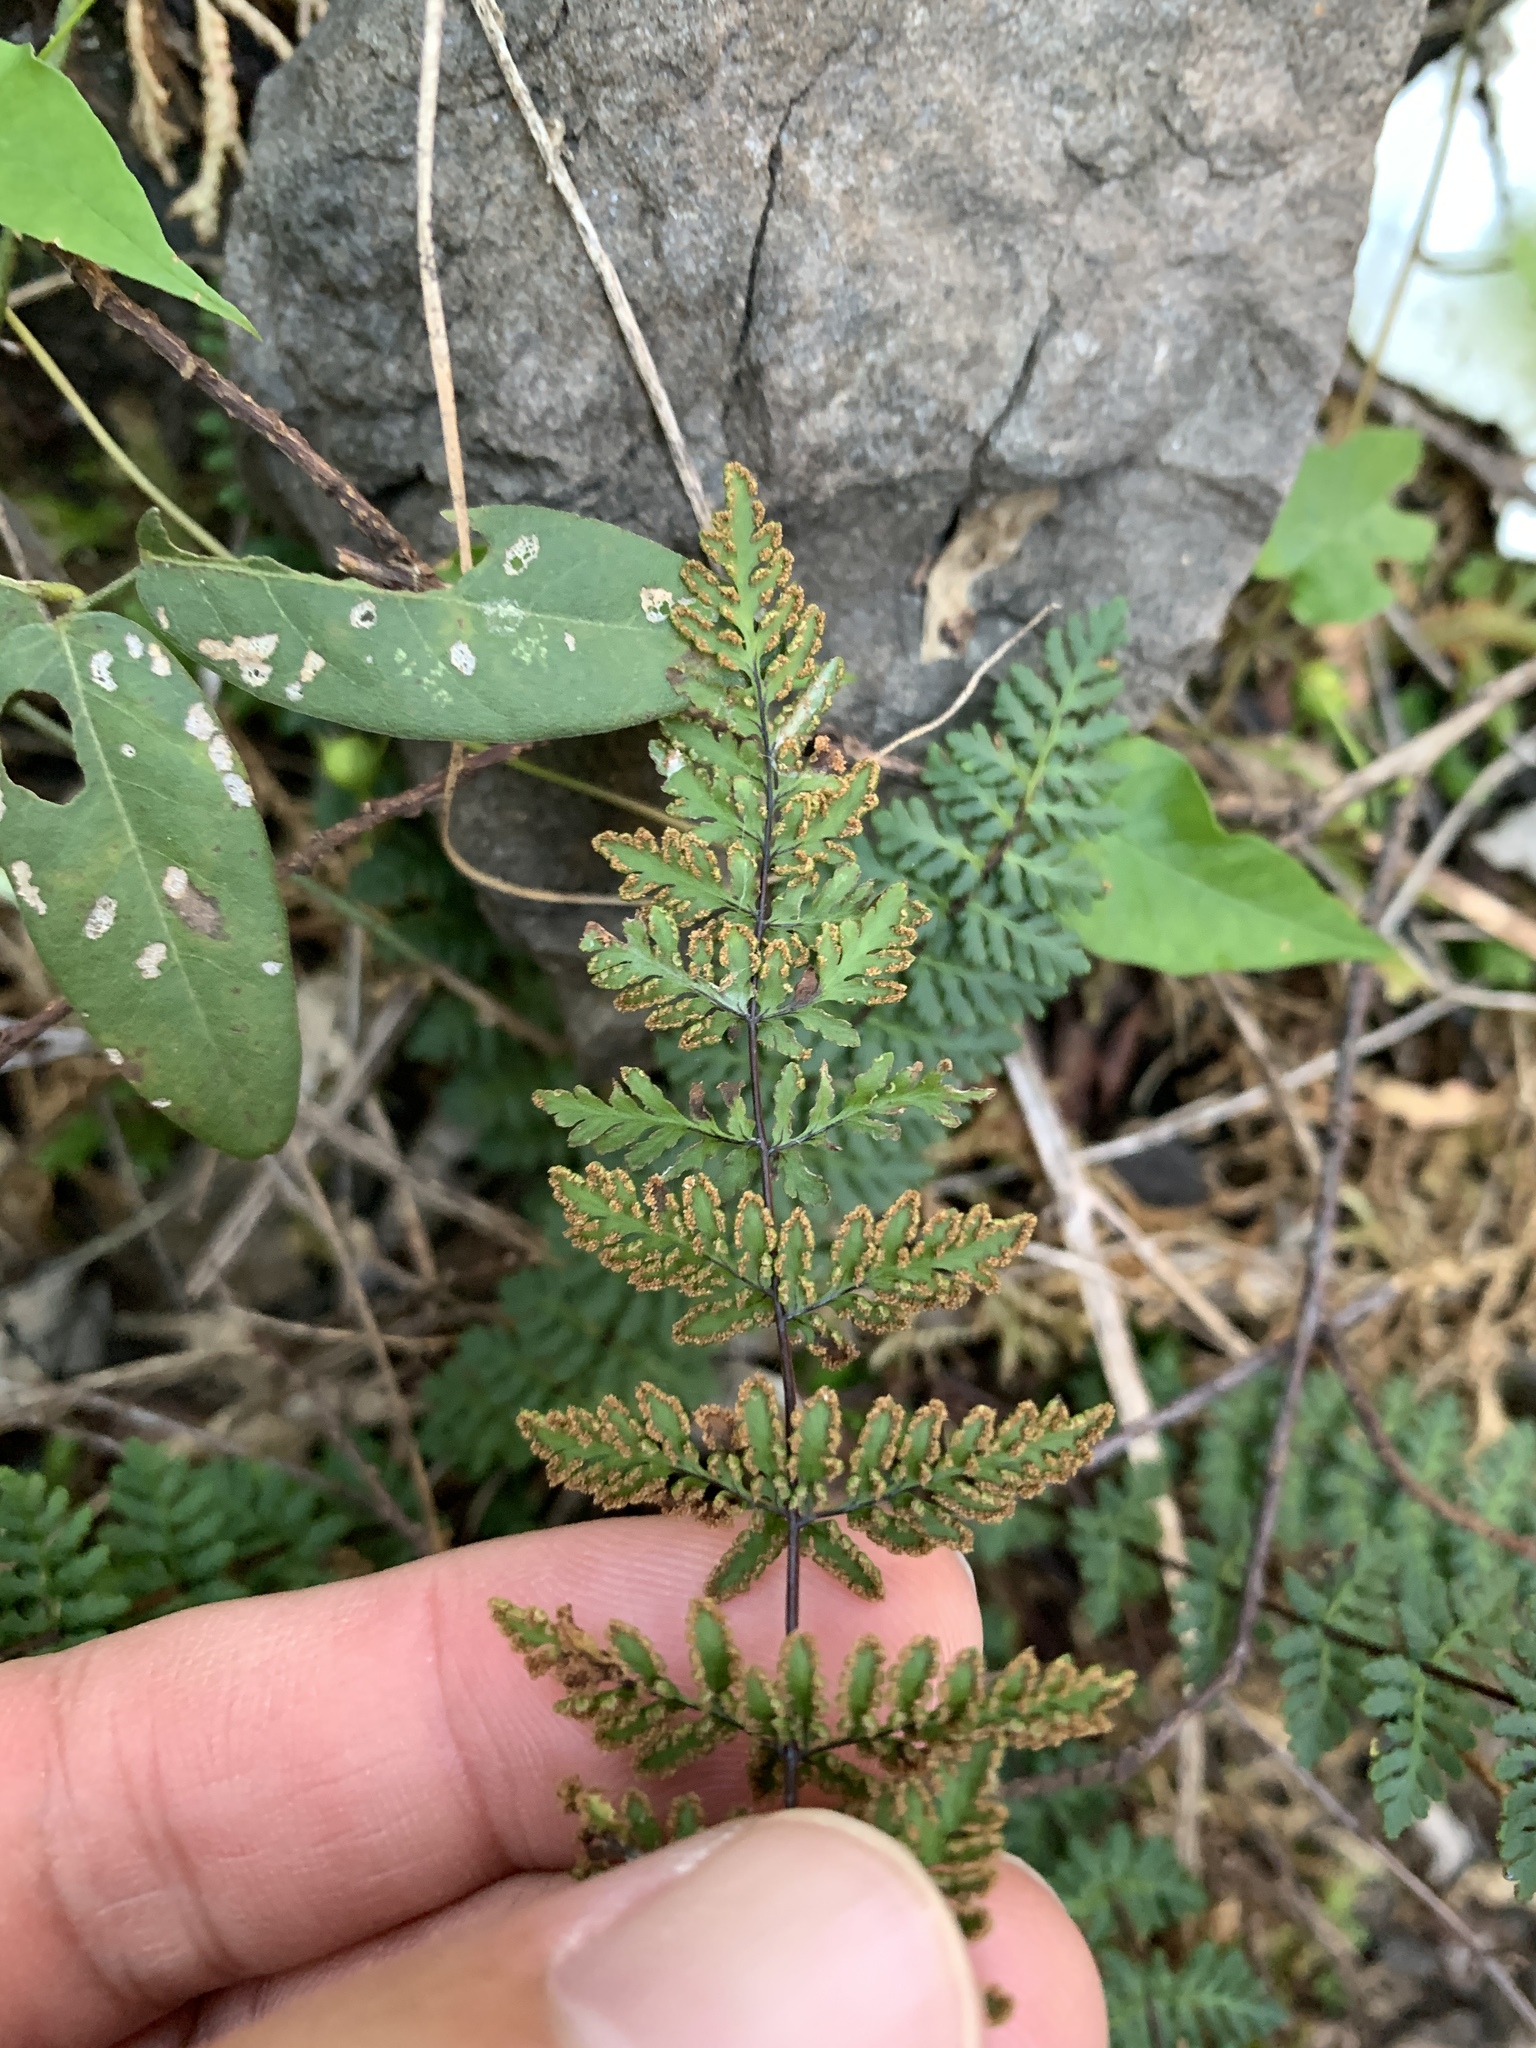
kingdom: Plantae
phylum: Tracheophyta
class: Polypodiopsida
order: Polypodiales
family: Pteridaceae
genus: Oeosporangium
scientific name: Oeosporangium chusanum
